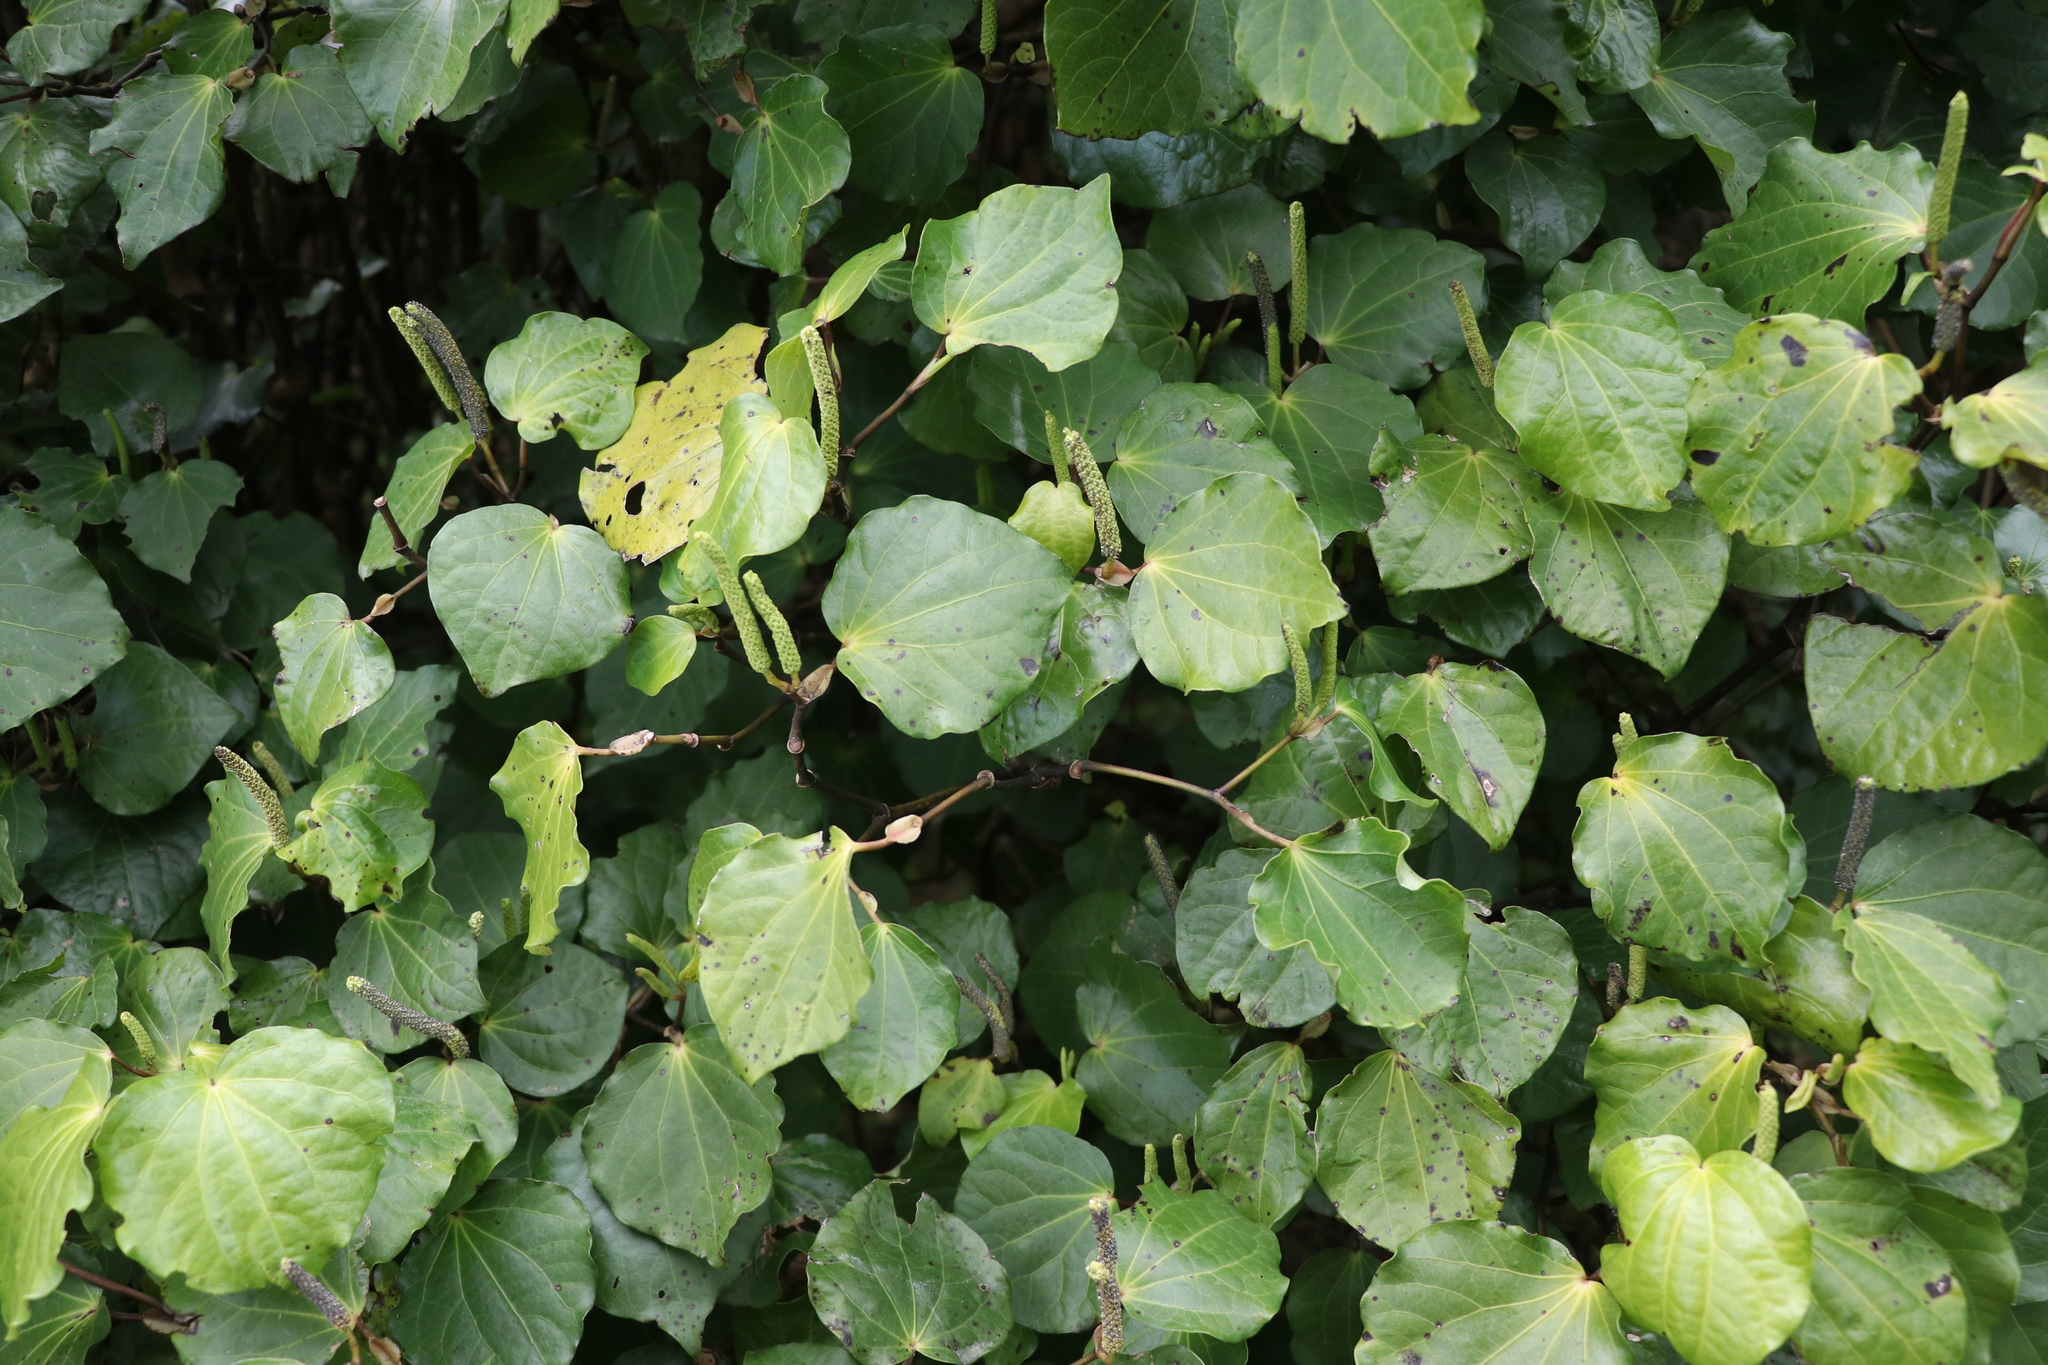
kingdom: Plantae
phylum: Tracheophyta
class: Magnoliopsida
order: Piperales
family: Piperaceae
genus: Macropiper
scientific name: Macropiper excelsum
